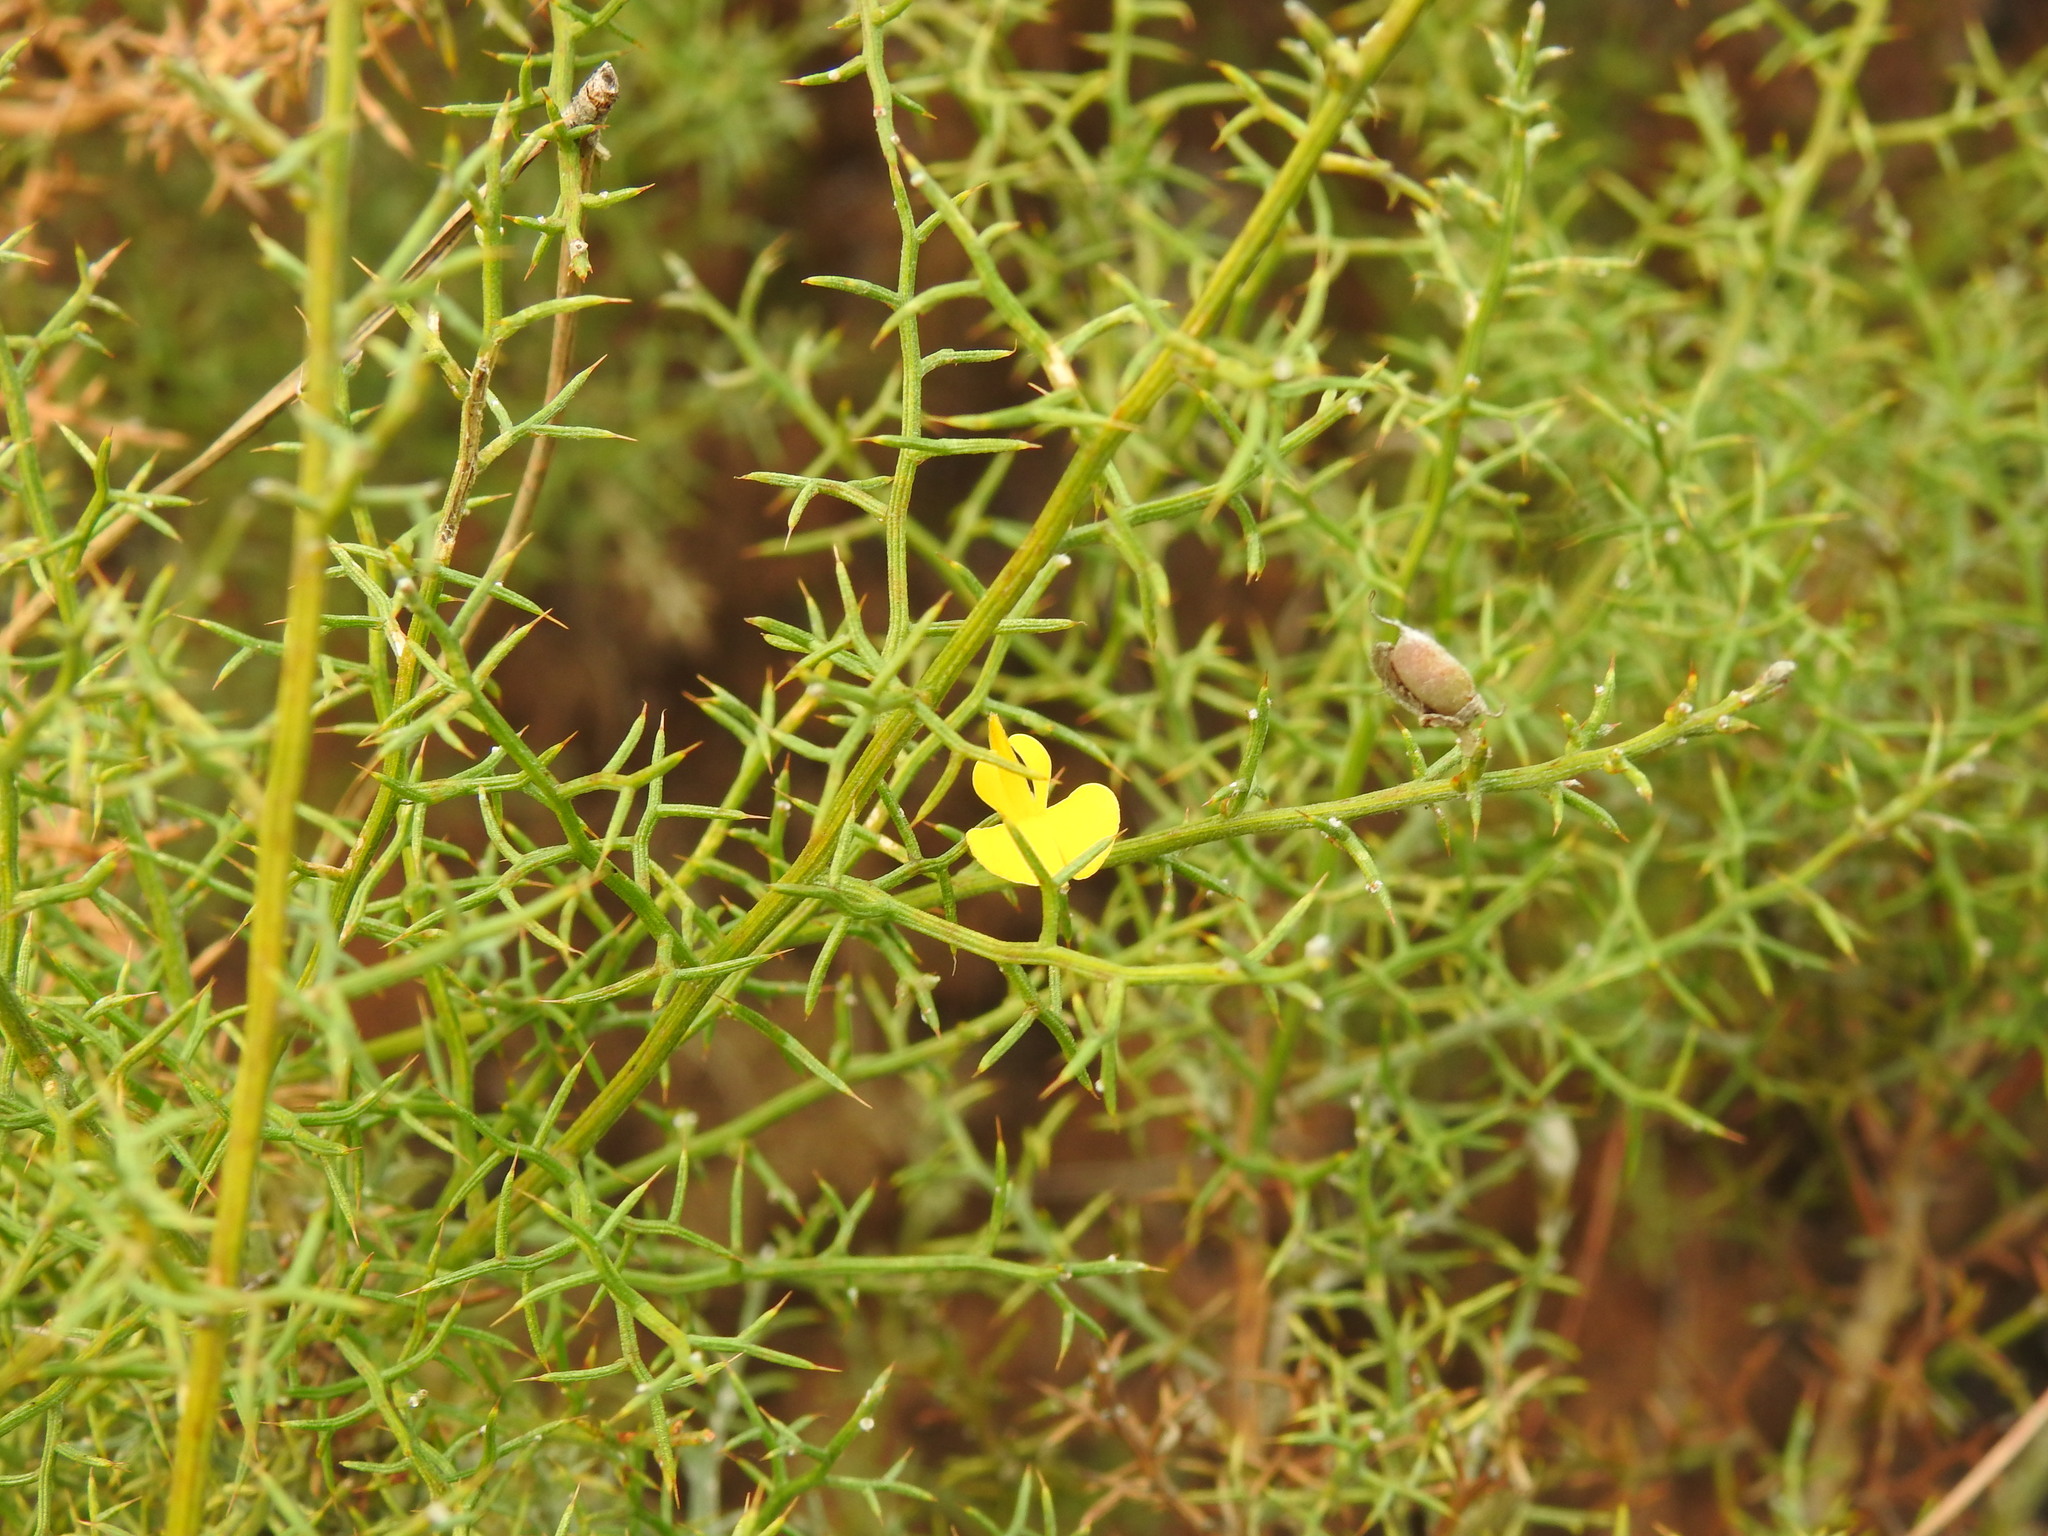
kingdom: Plantae
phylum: Tracheophyta
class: Magnoliopsida
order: Fabales
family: Fabaceae
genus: Stauracanthus
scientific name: Stauracanthus boivinii
